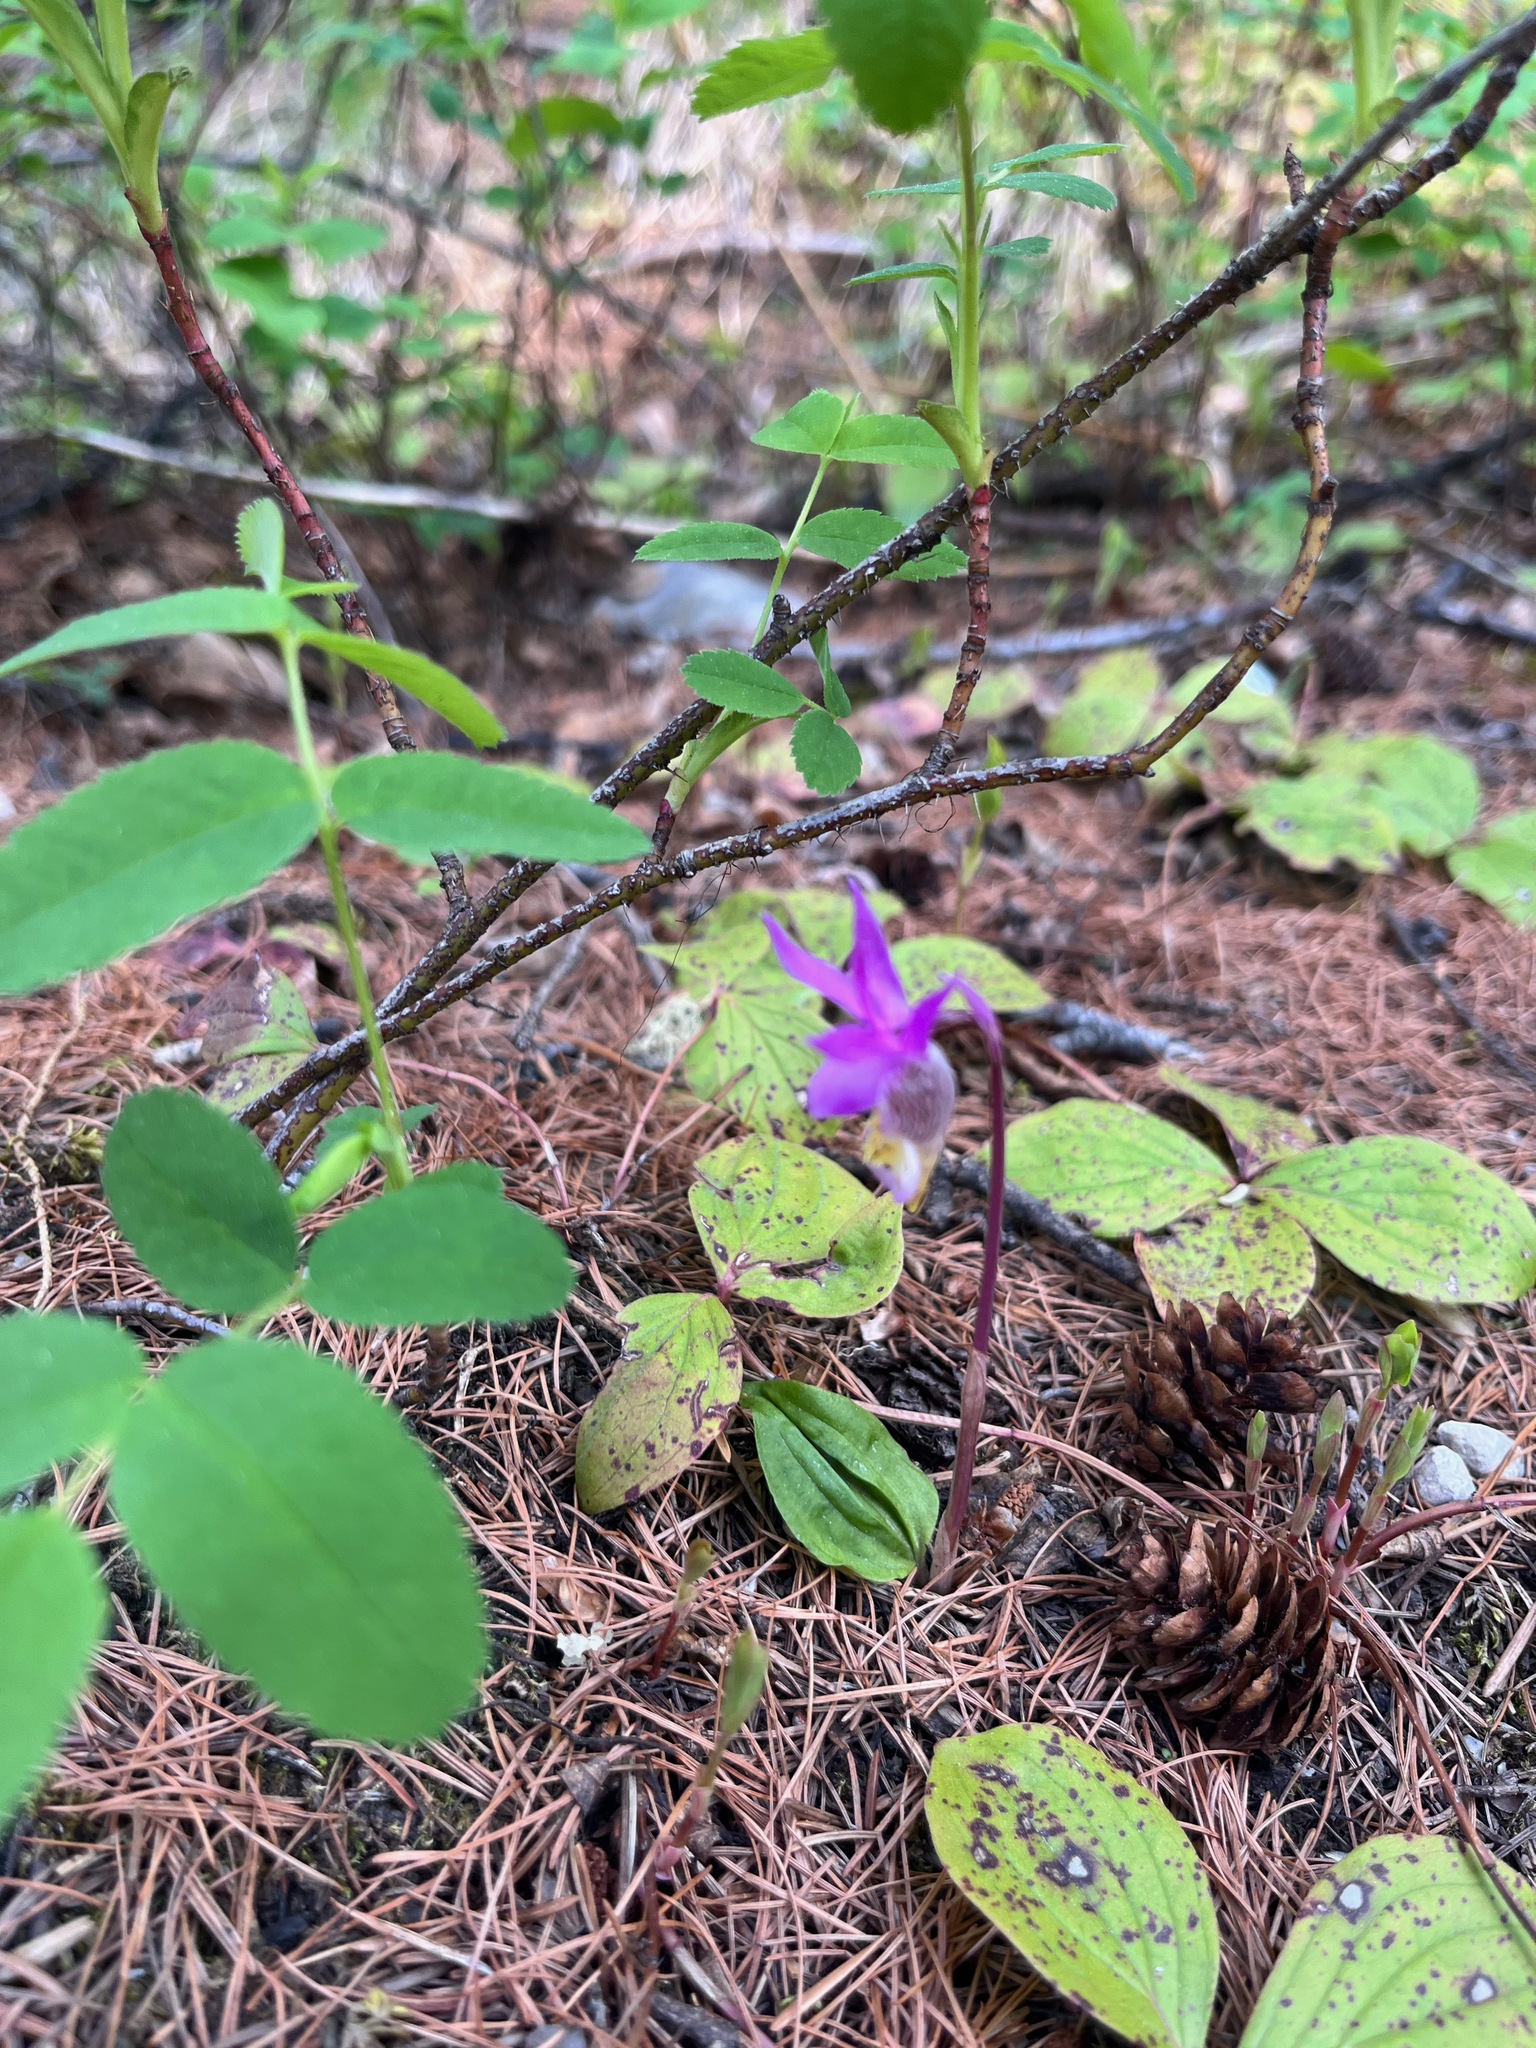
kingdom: Plantae
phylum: Tracheophyta
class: Liliopsida
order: Asparagales
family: Orchidaceae
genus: Calypso
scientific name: Calypso bulbosa
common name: Calypso
